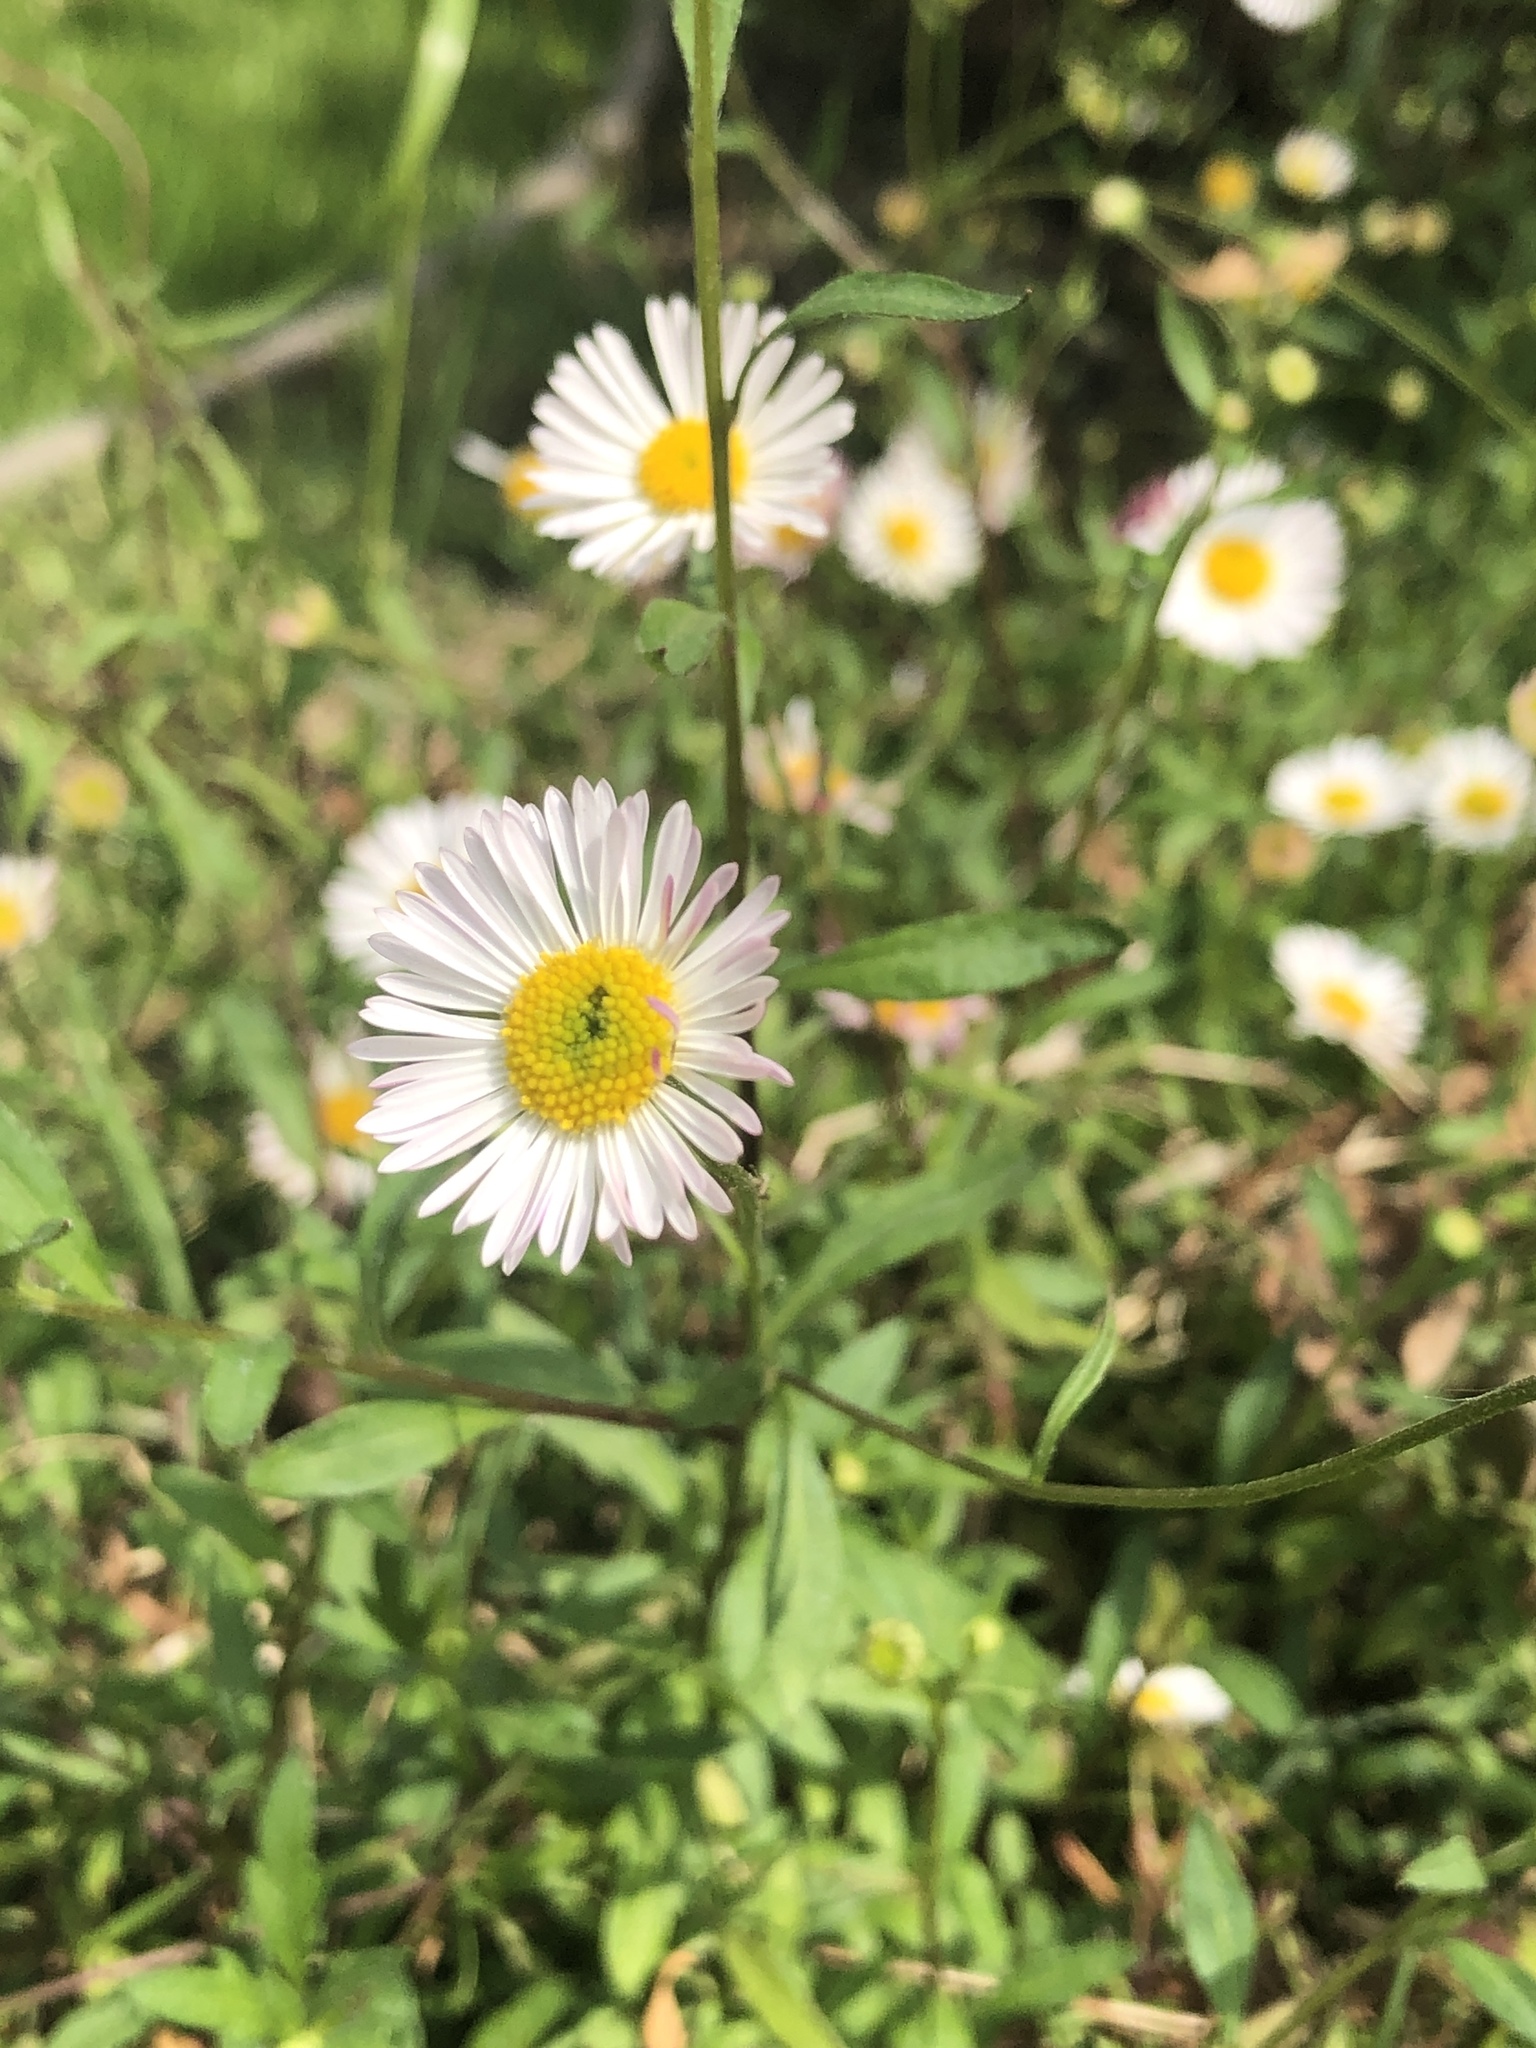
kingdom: Plantae
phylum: Tracheophyta
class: Magnoliopsida
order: Asterales
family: Asteraceae
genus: Erigeron
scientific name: Erigeron karvinskianus
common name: Mexican fleabane
